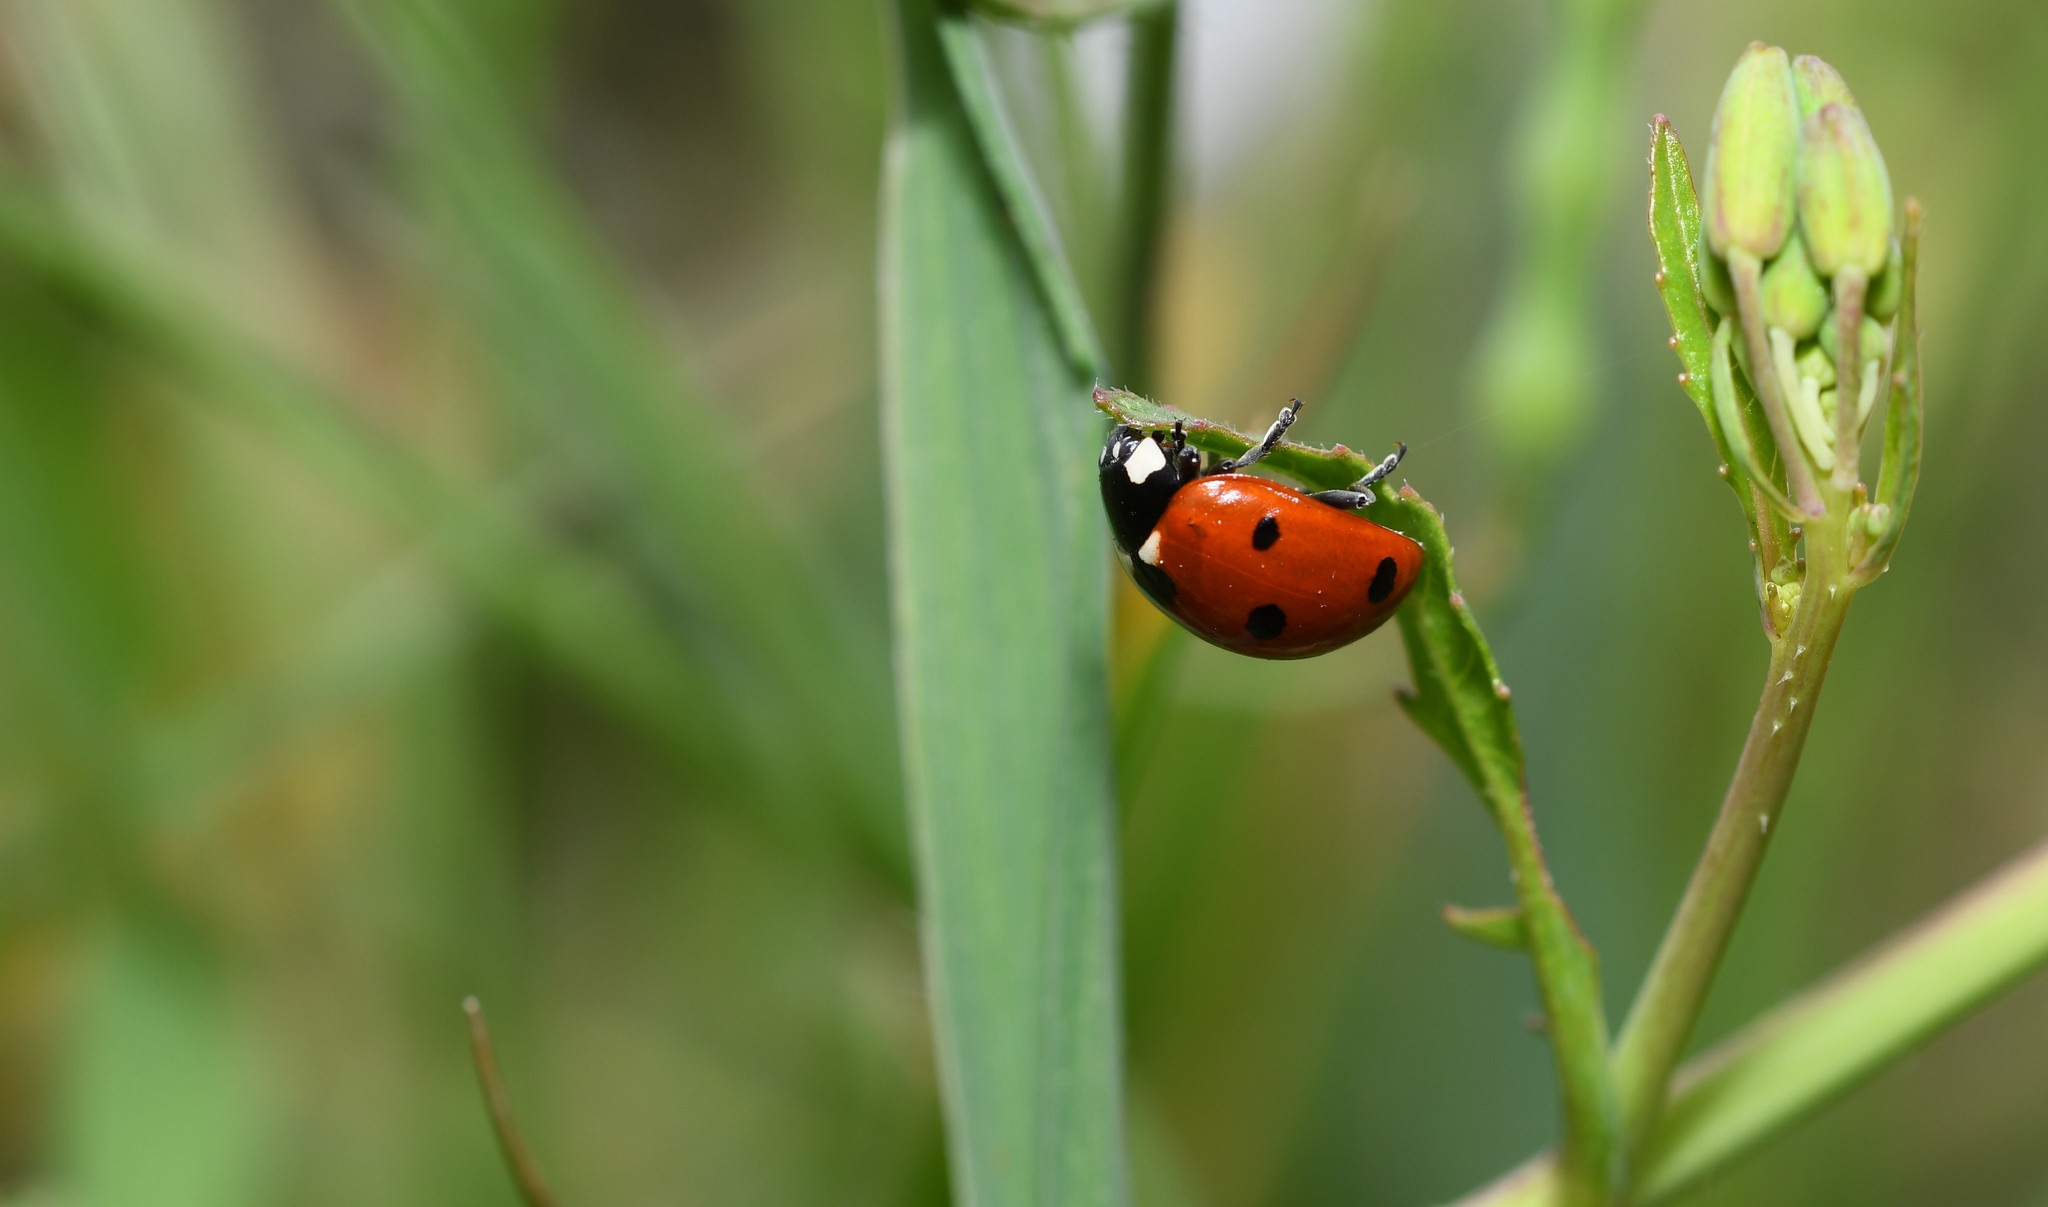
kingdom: Animalia
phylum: Arthropoda
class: Insecta
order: Coleoptera
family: Coccinellidae
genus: Coccinella
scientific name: Coccinella septempunctata
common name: Sevenspotted lady beetle
